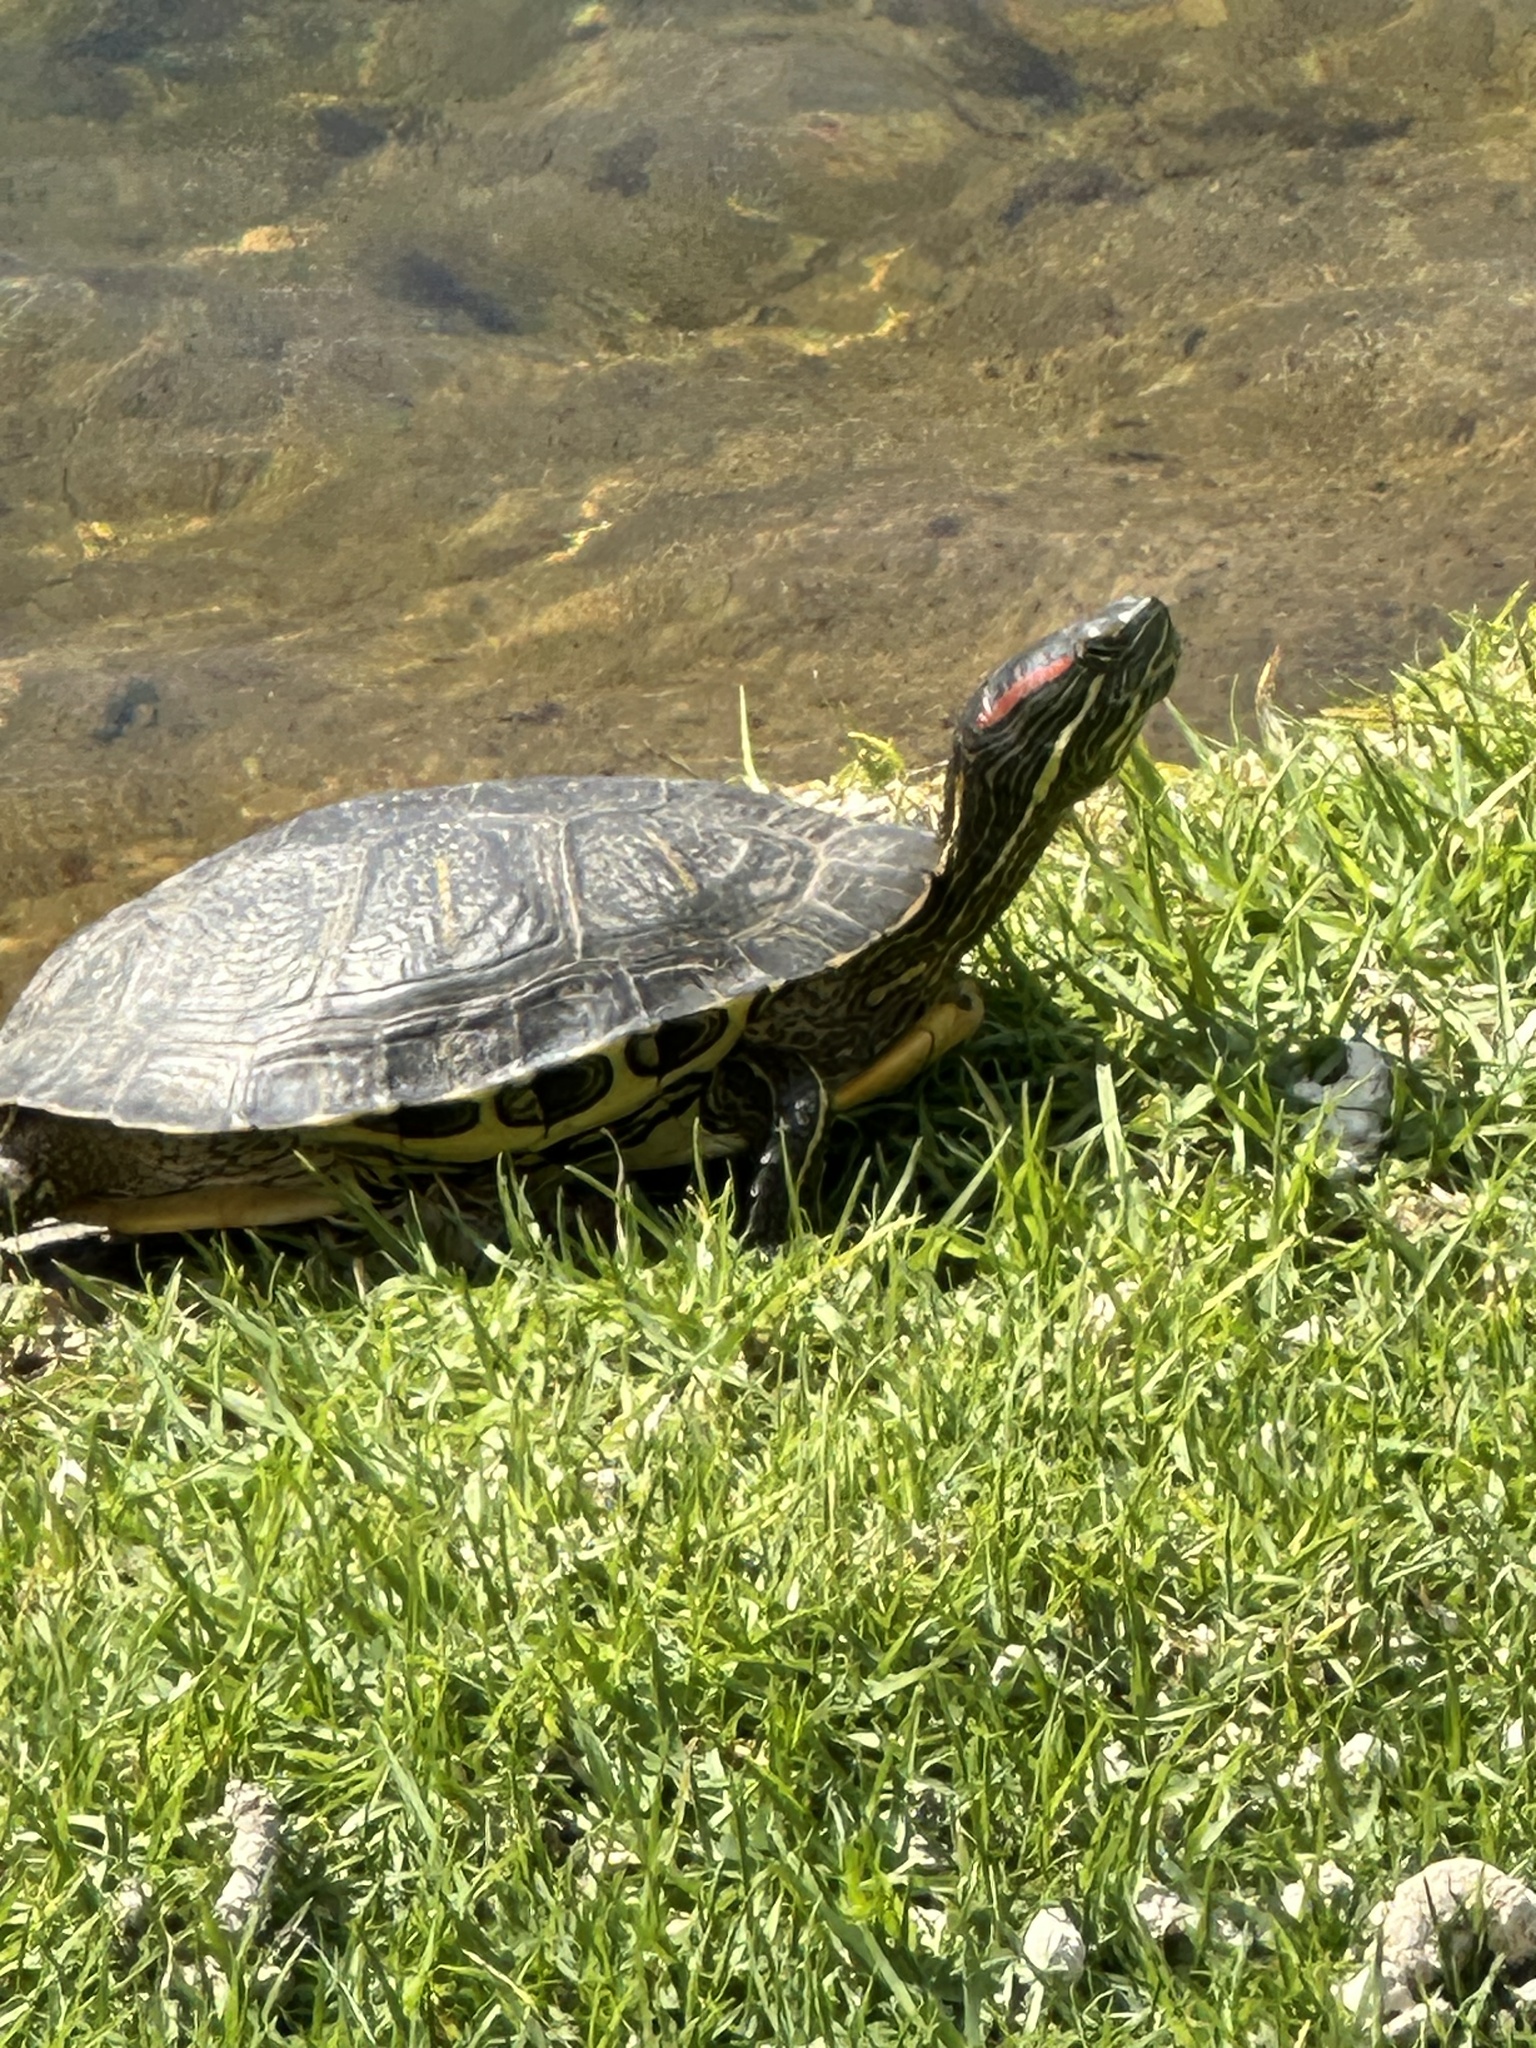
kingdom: Animalia
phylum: Chordata
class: Testudines
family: Emydidae
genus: Trachemys
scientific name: Trachemys scripta
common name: Slider
